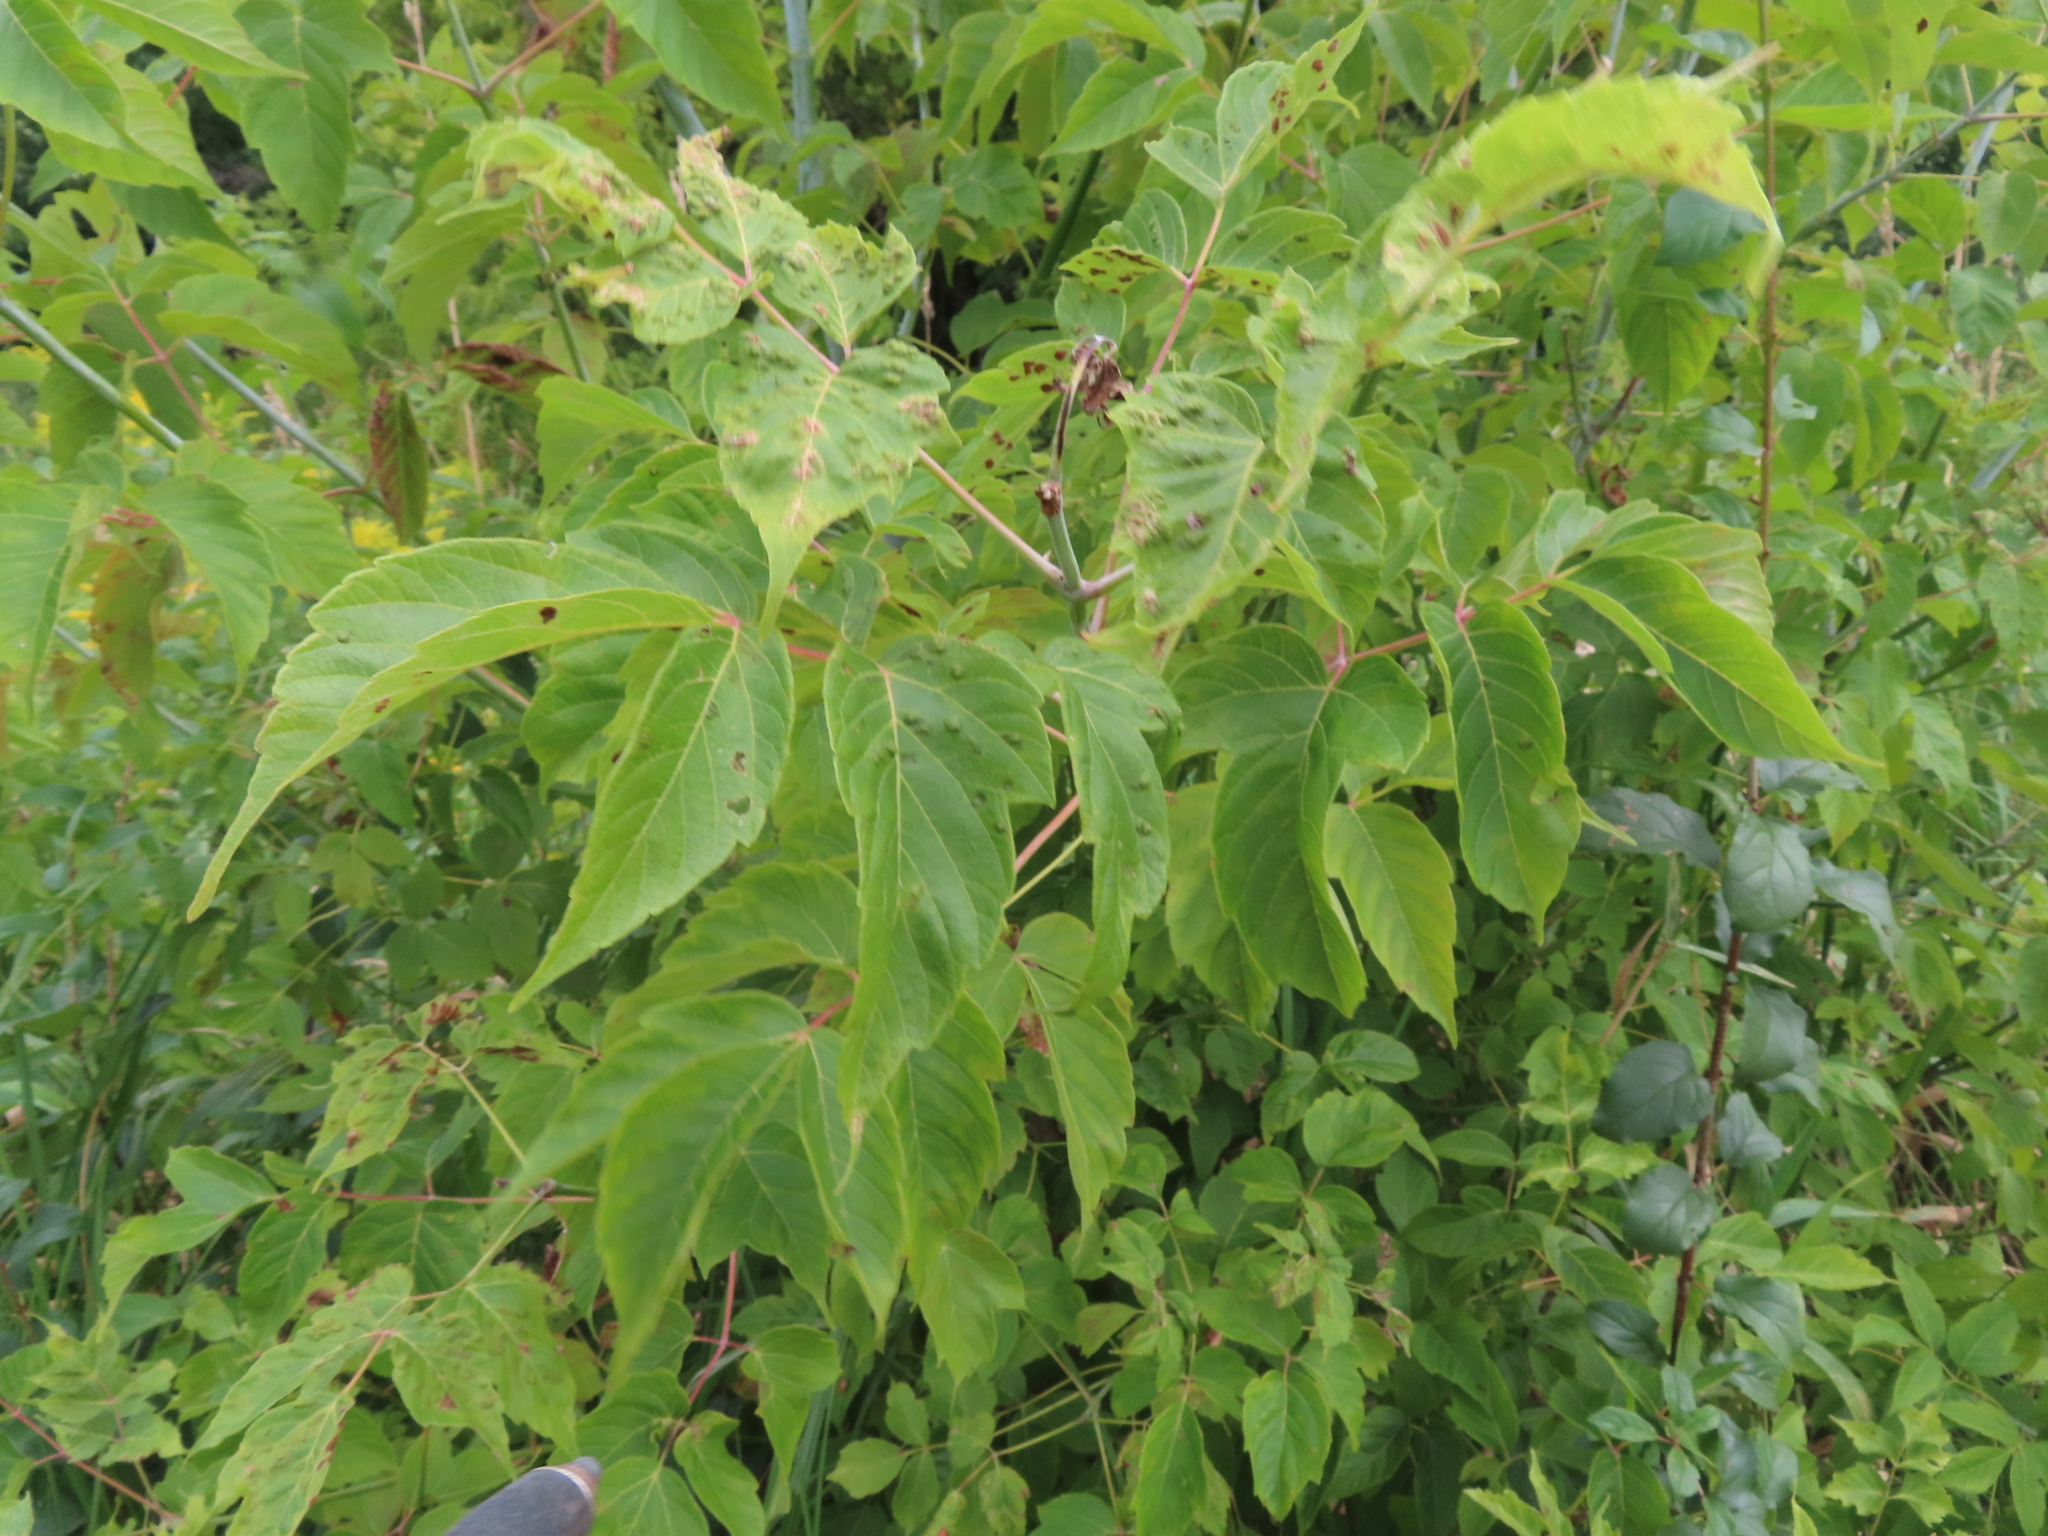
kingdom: Plantae
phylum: Tracheophyta
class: Magnoliopsida
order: Sapindales
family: Sapindaceae
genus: Acer
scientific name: Acer negundo
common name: Ashleaf maple
